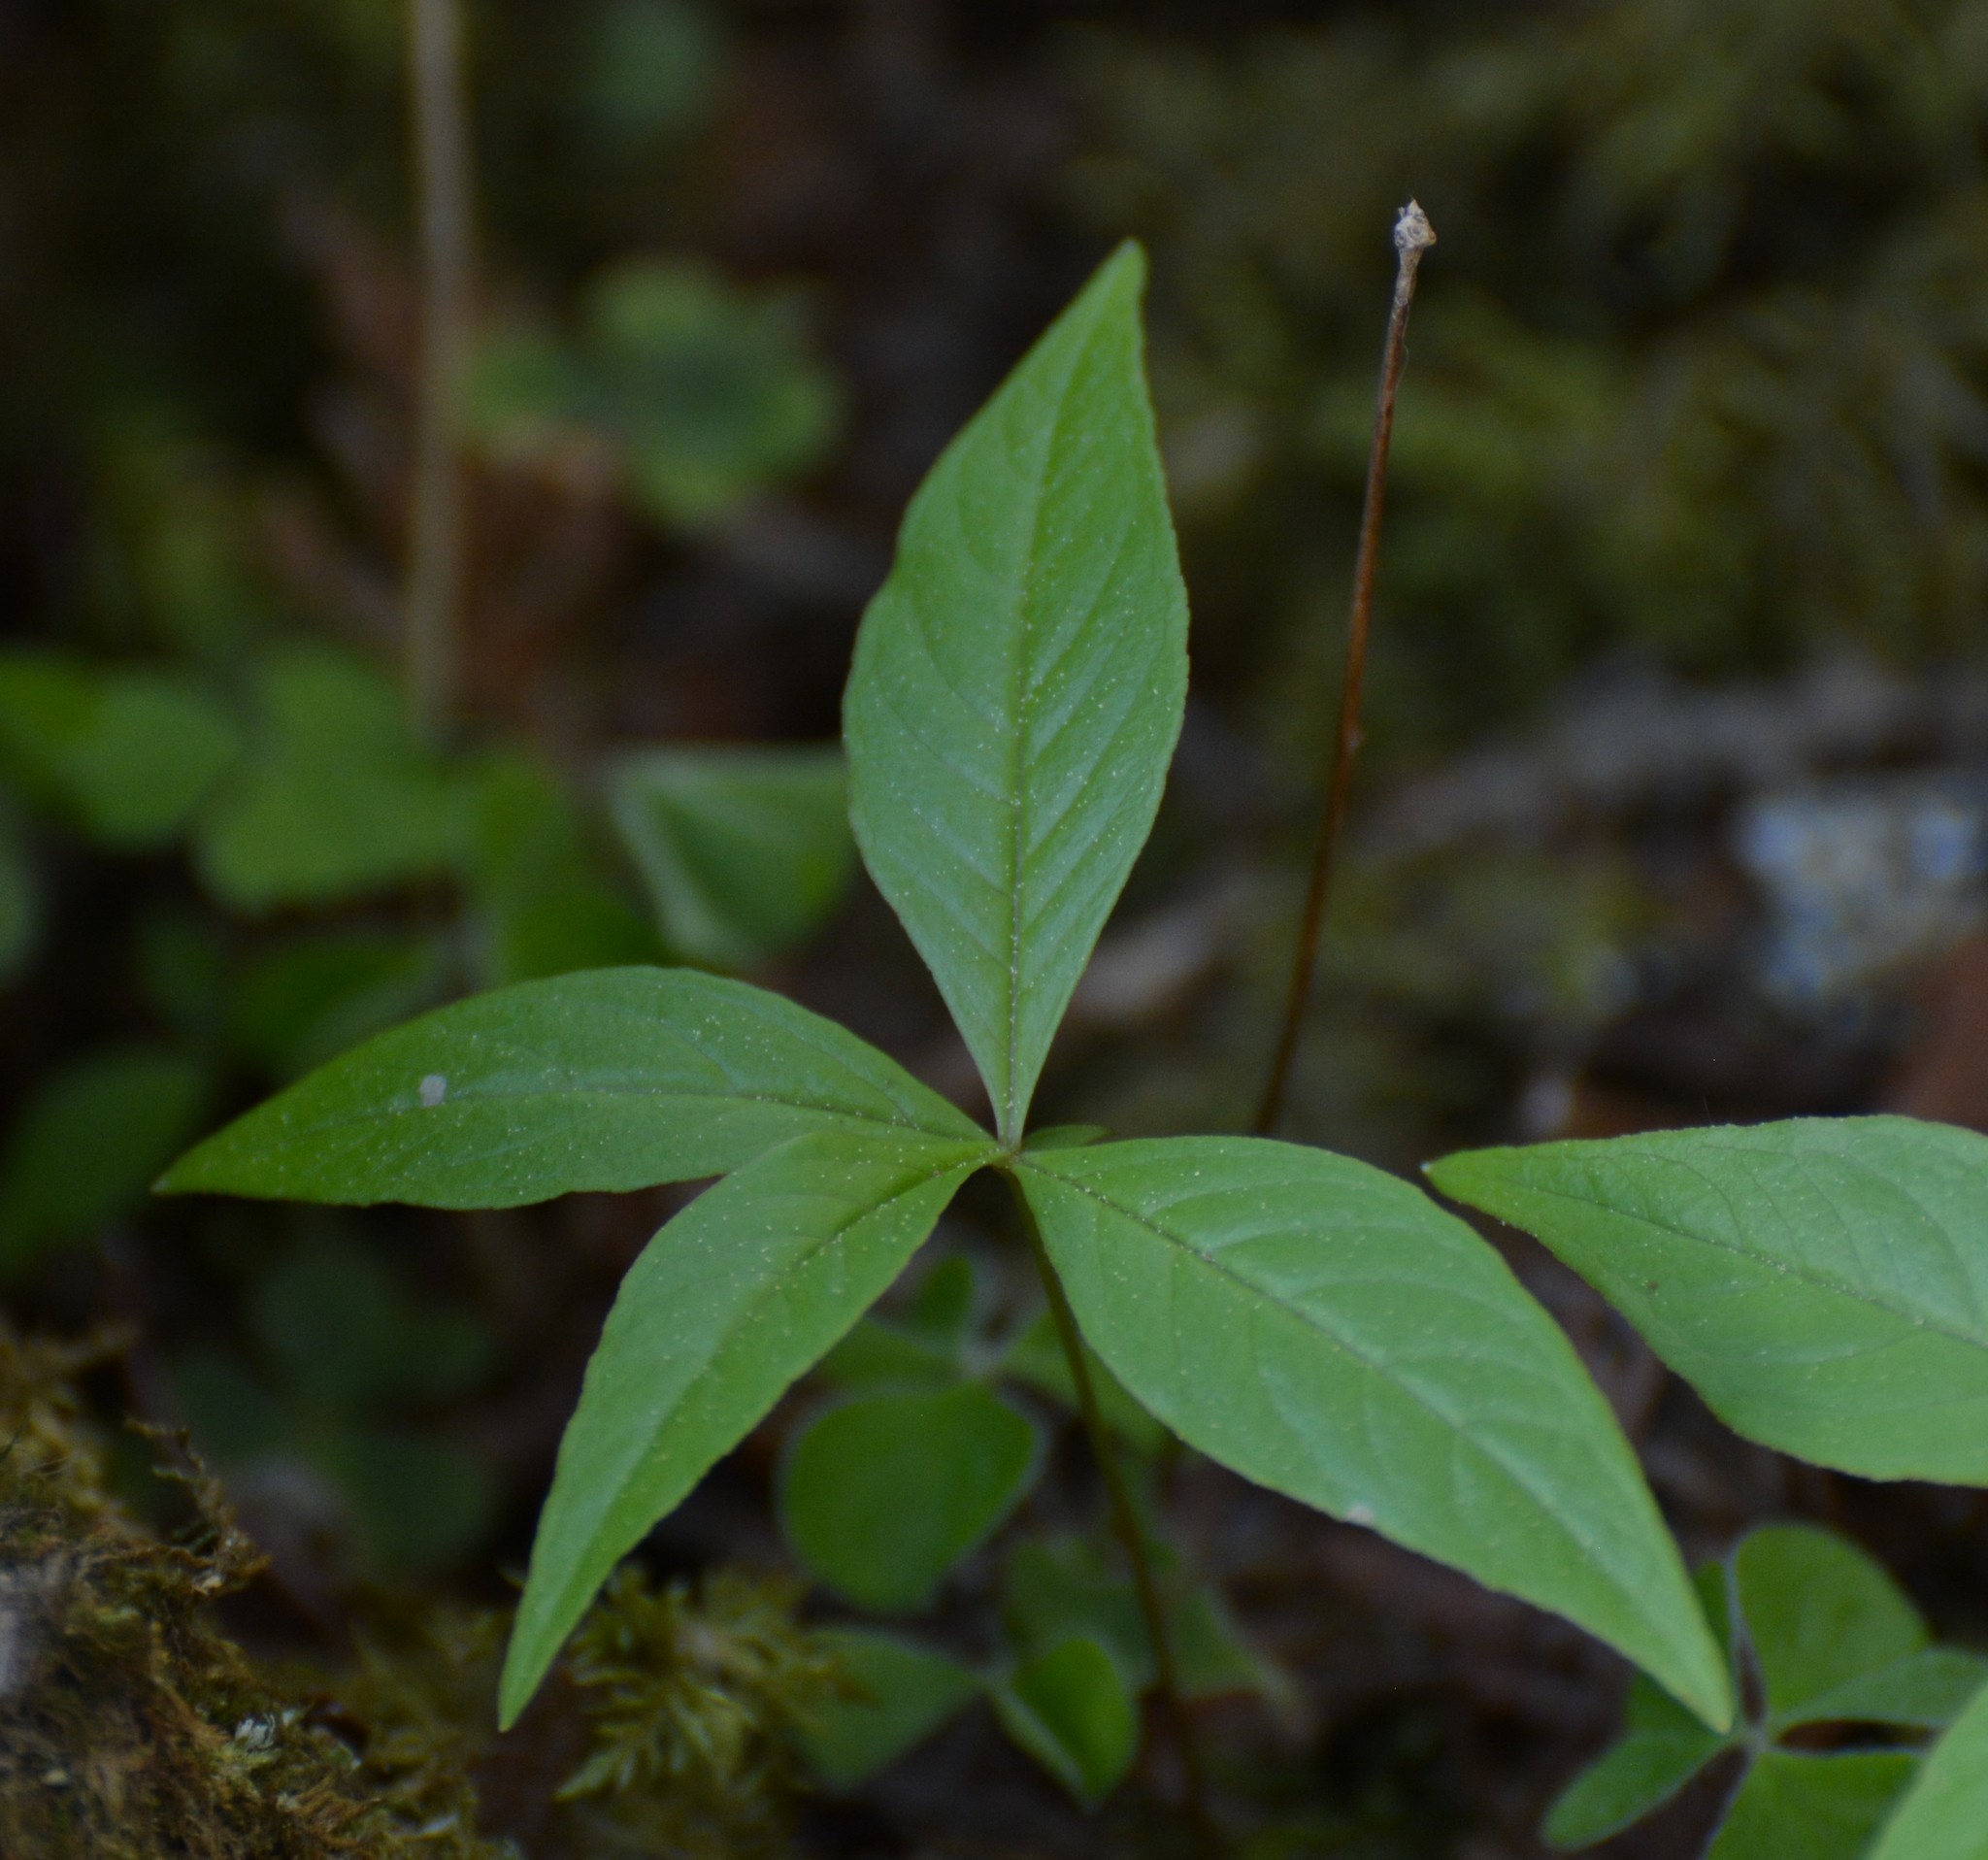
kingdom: Plantae
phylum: Tracheophyta
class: Magnoliopsida
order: Ericales
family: Primulaceae
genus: Lysimachia
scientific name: Lysimachia borealis
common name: American starflower
